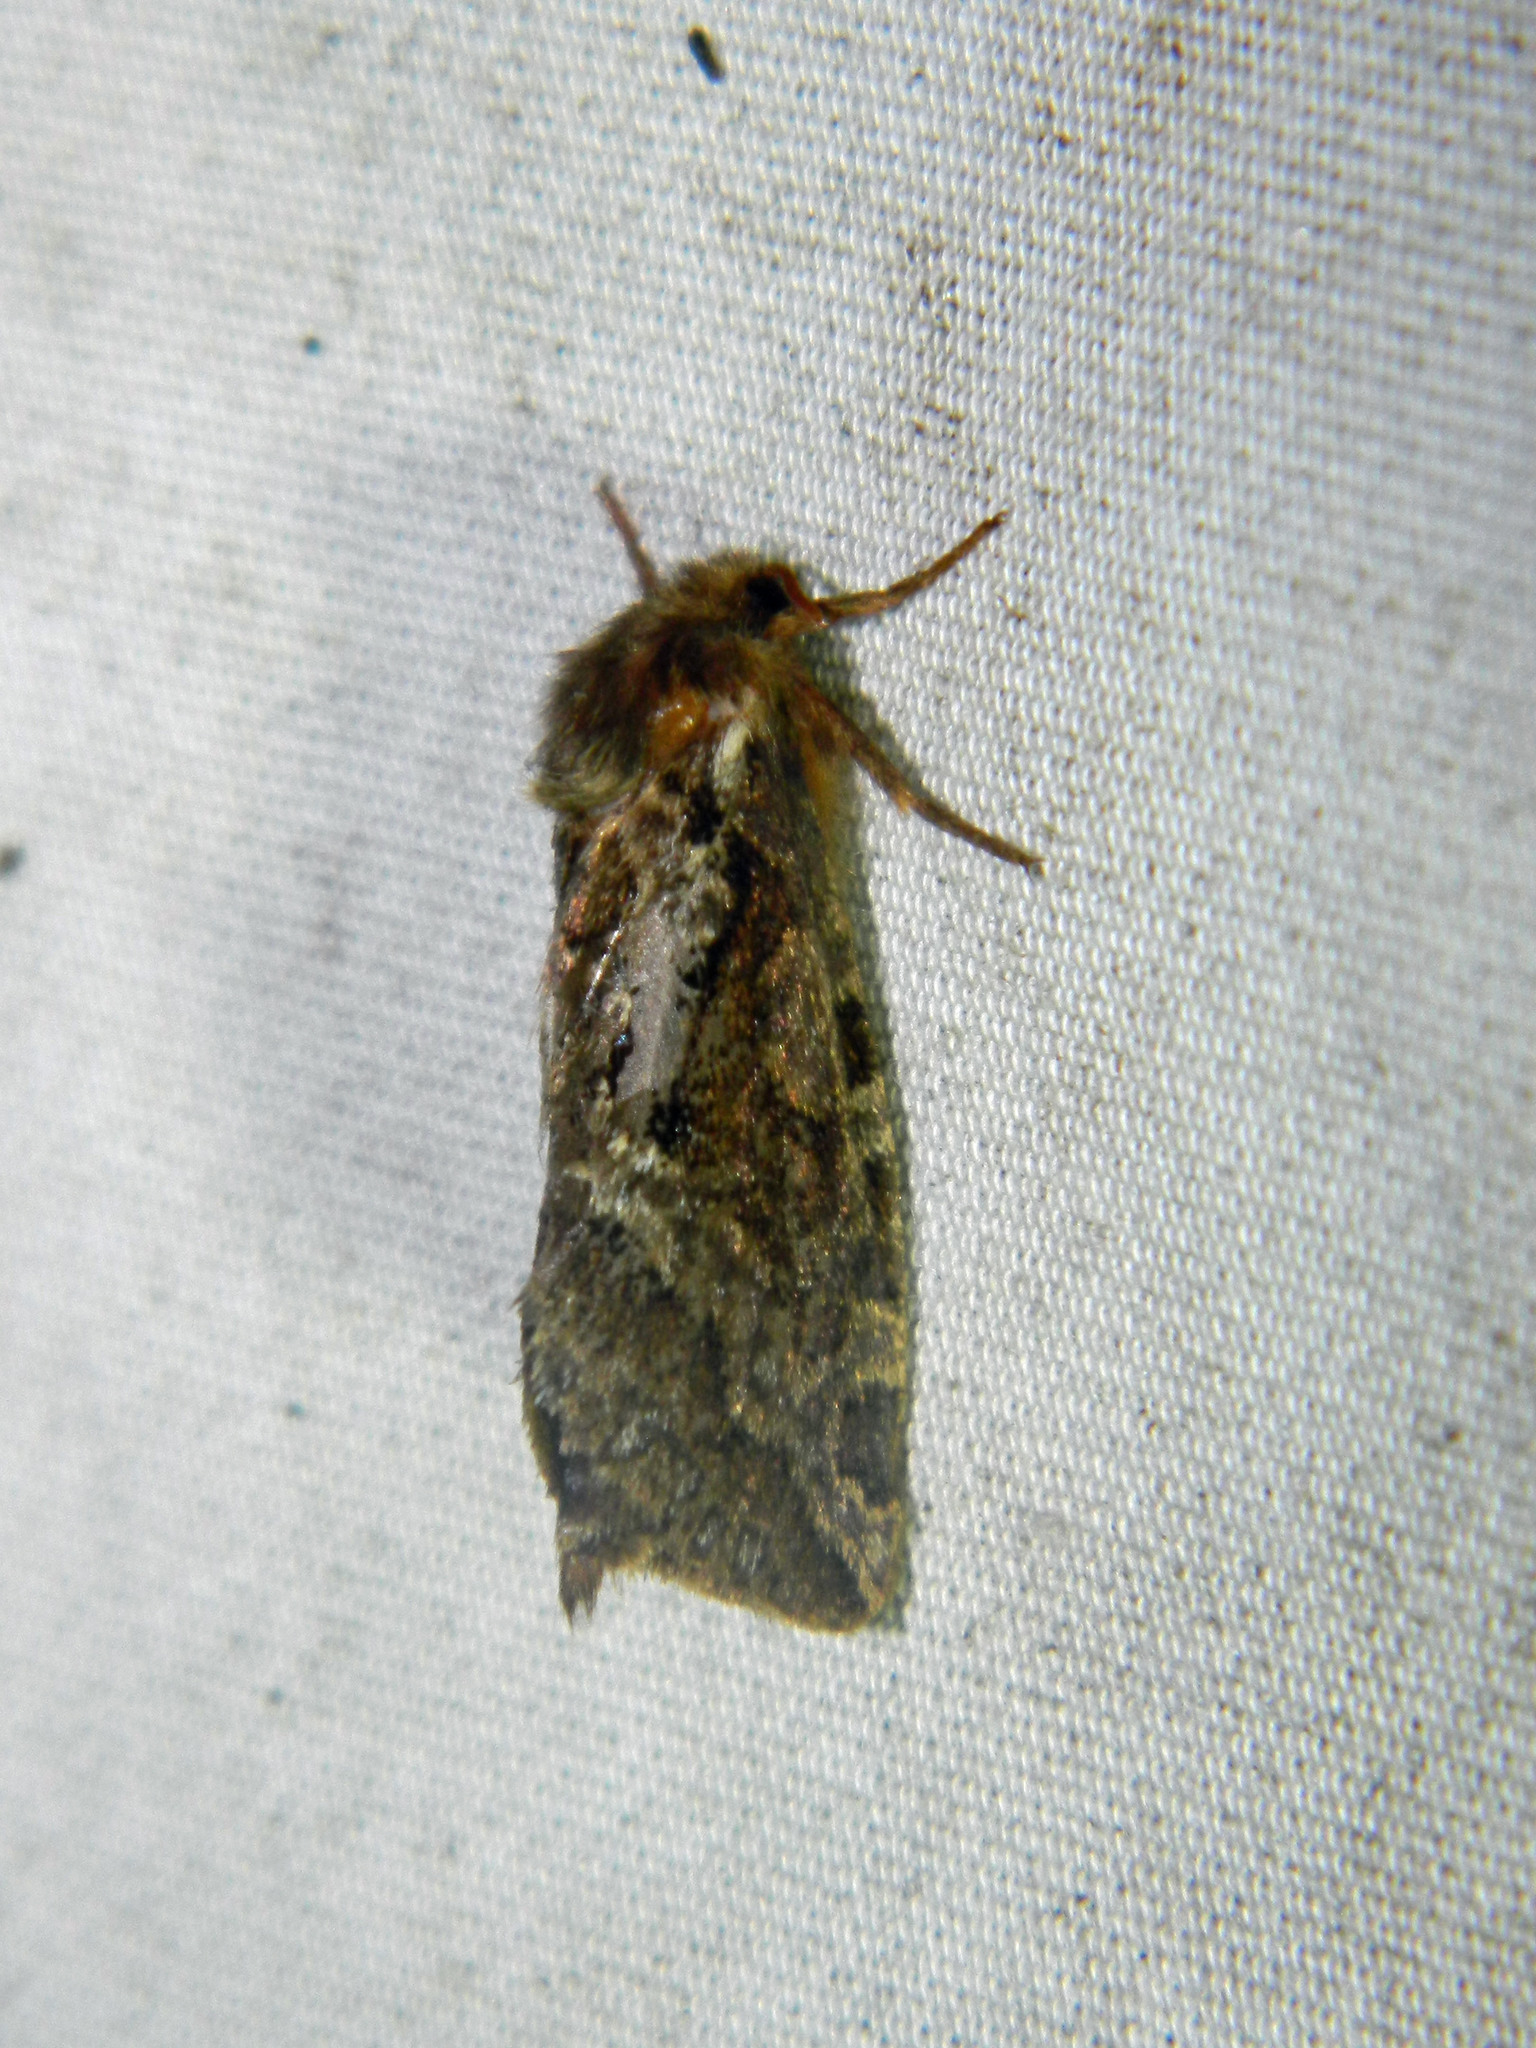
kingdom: Animalia
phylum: Arthropoda
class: Insecta
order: Lepidoptera
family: Hepialidae
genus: Korscheltellus
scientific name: Korscheltellus gracilis
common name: Conifer swift moth
